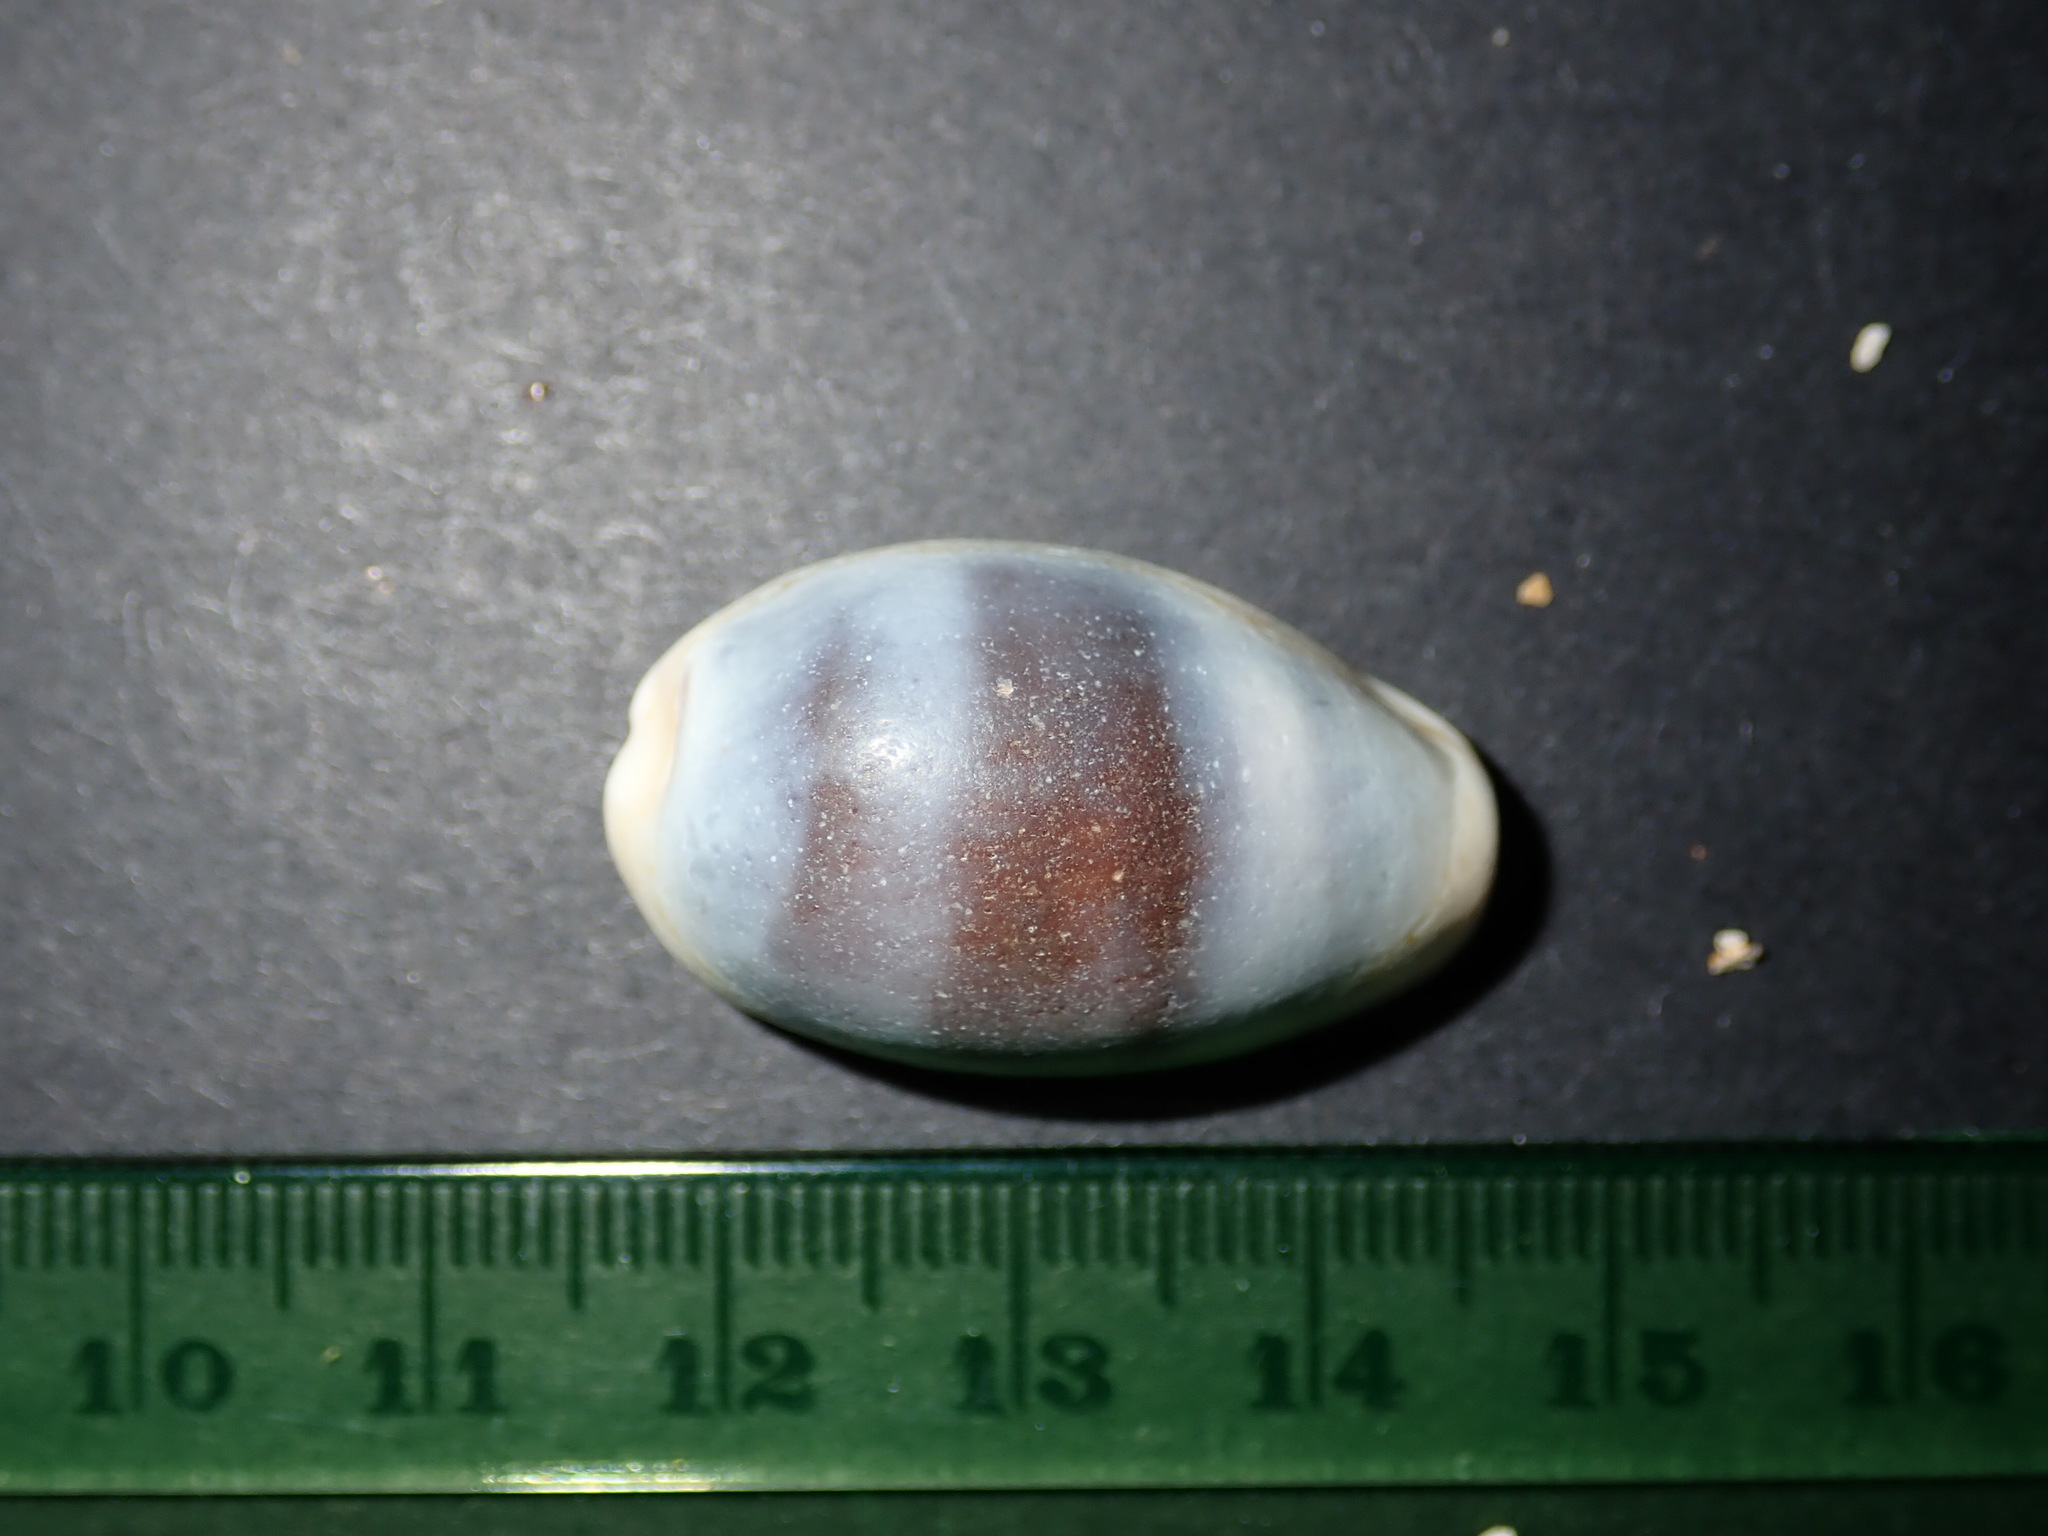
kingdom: Animalia
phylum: Mollusca
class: Gastropoda
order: Littorinimorpha
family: Cypraeidae
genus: Erronea
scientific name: Erronea errones
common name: Mistaken cowrie
